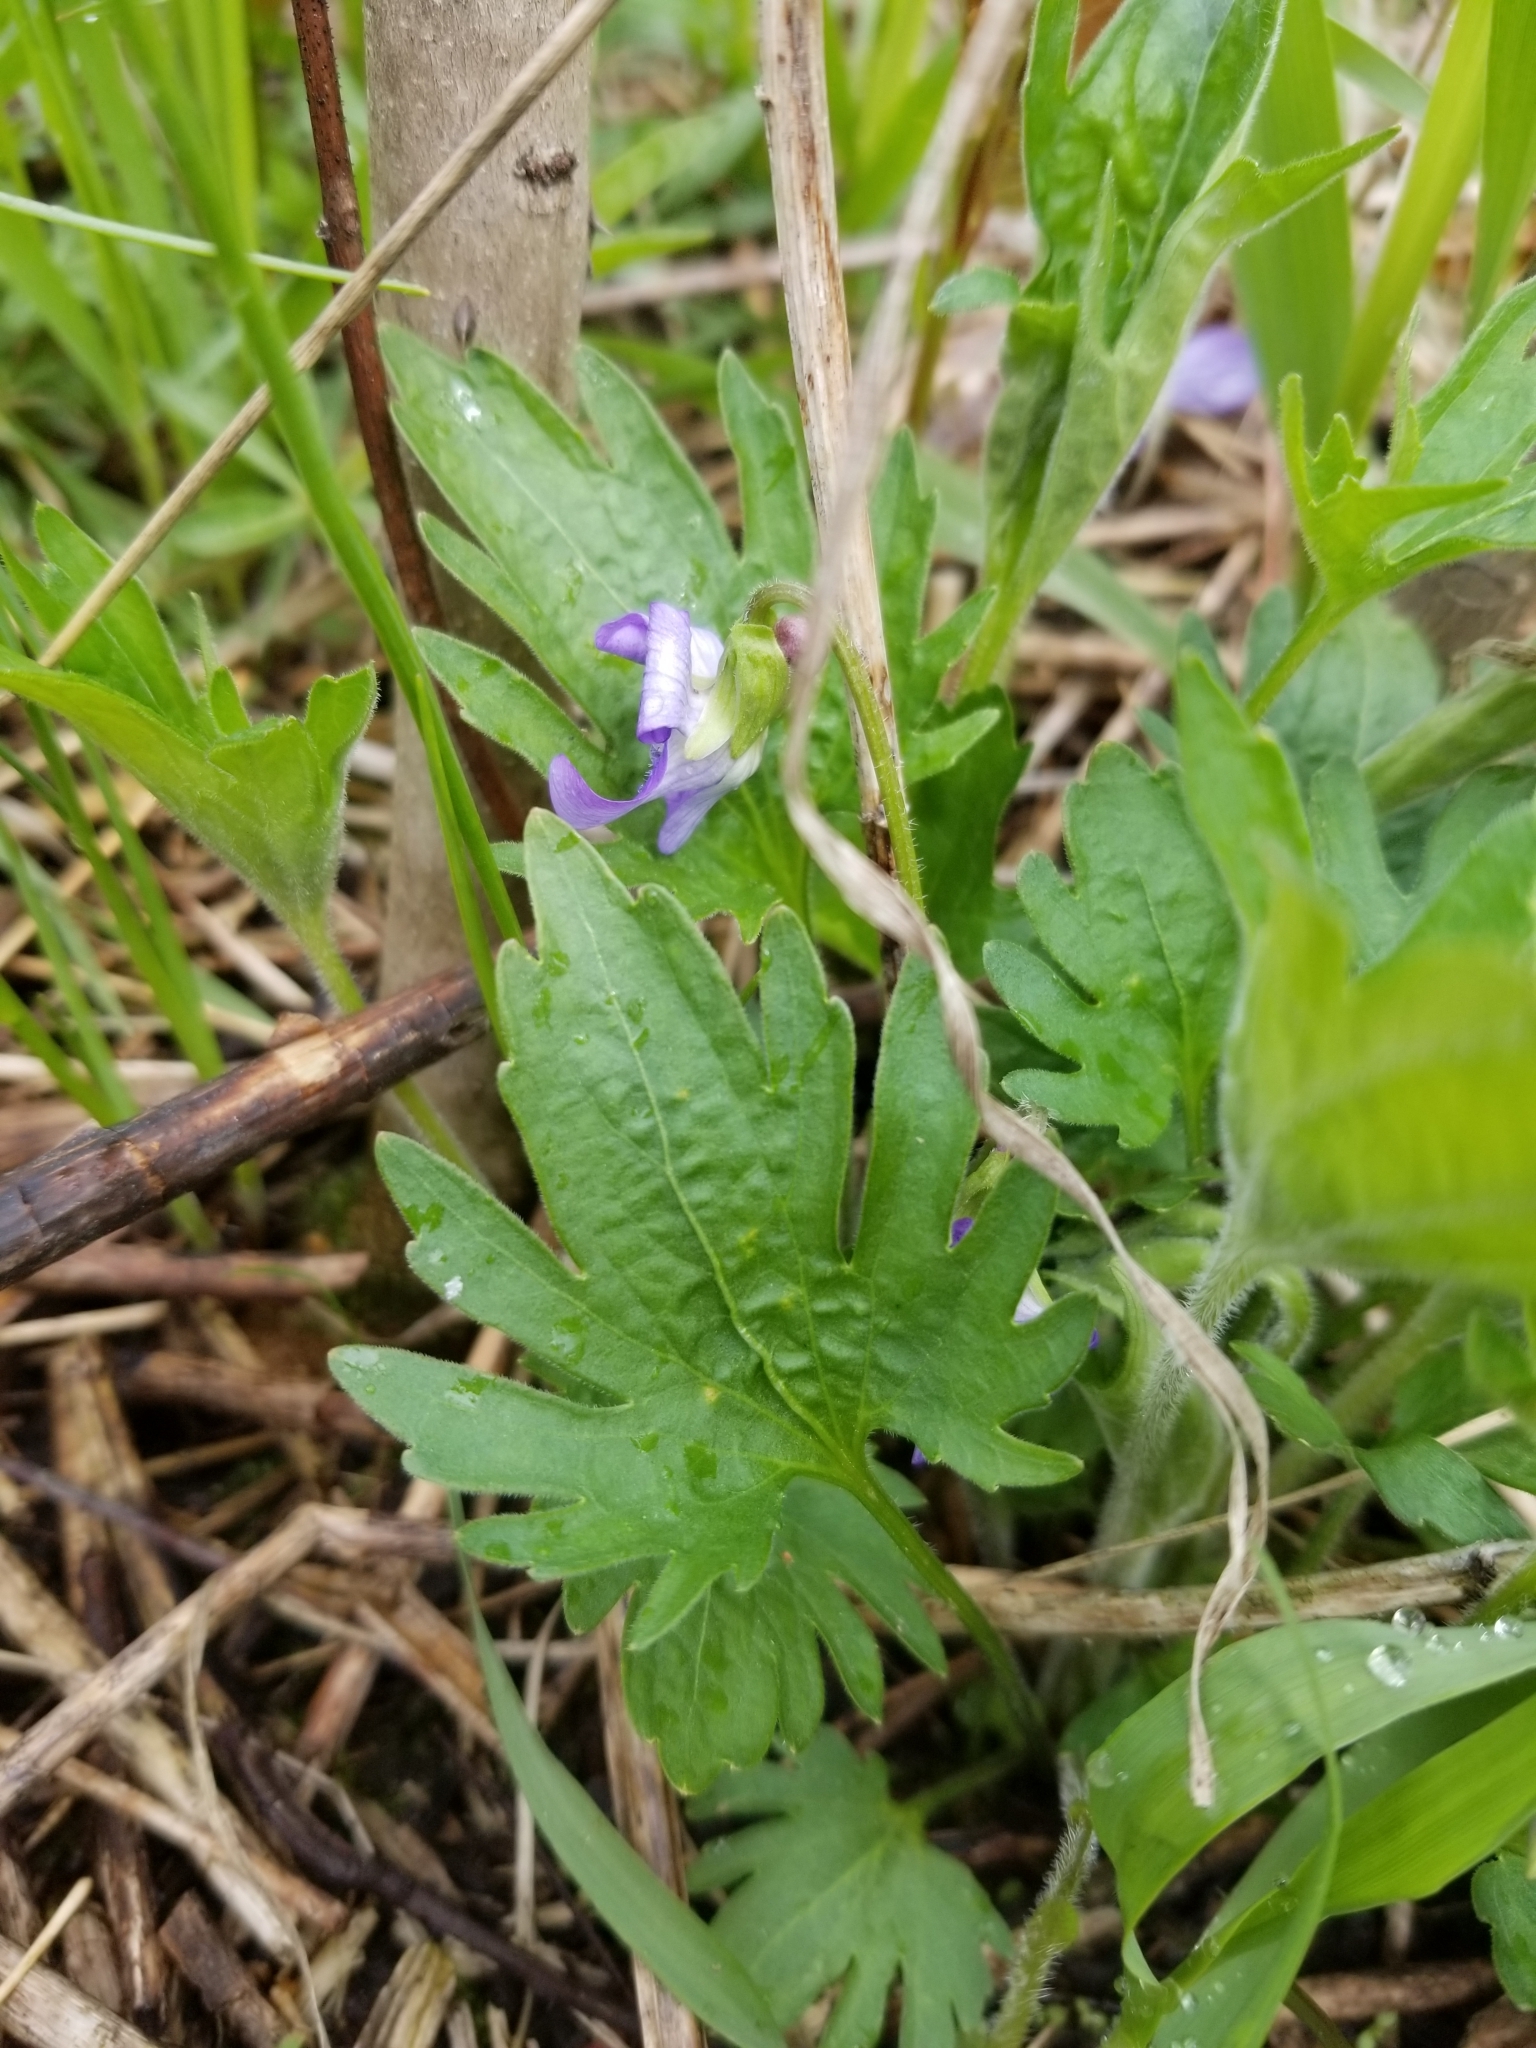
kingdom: Plantae
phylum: Tracheophyta
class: Magnoliopsida
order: Malpighiales
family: Violaceae
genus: Viola
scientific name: Viola pedatifida
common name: Prairie violet
